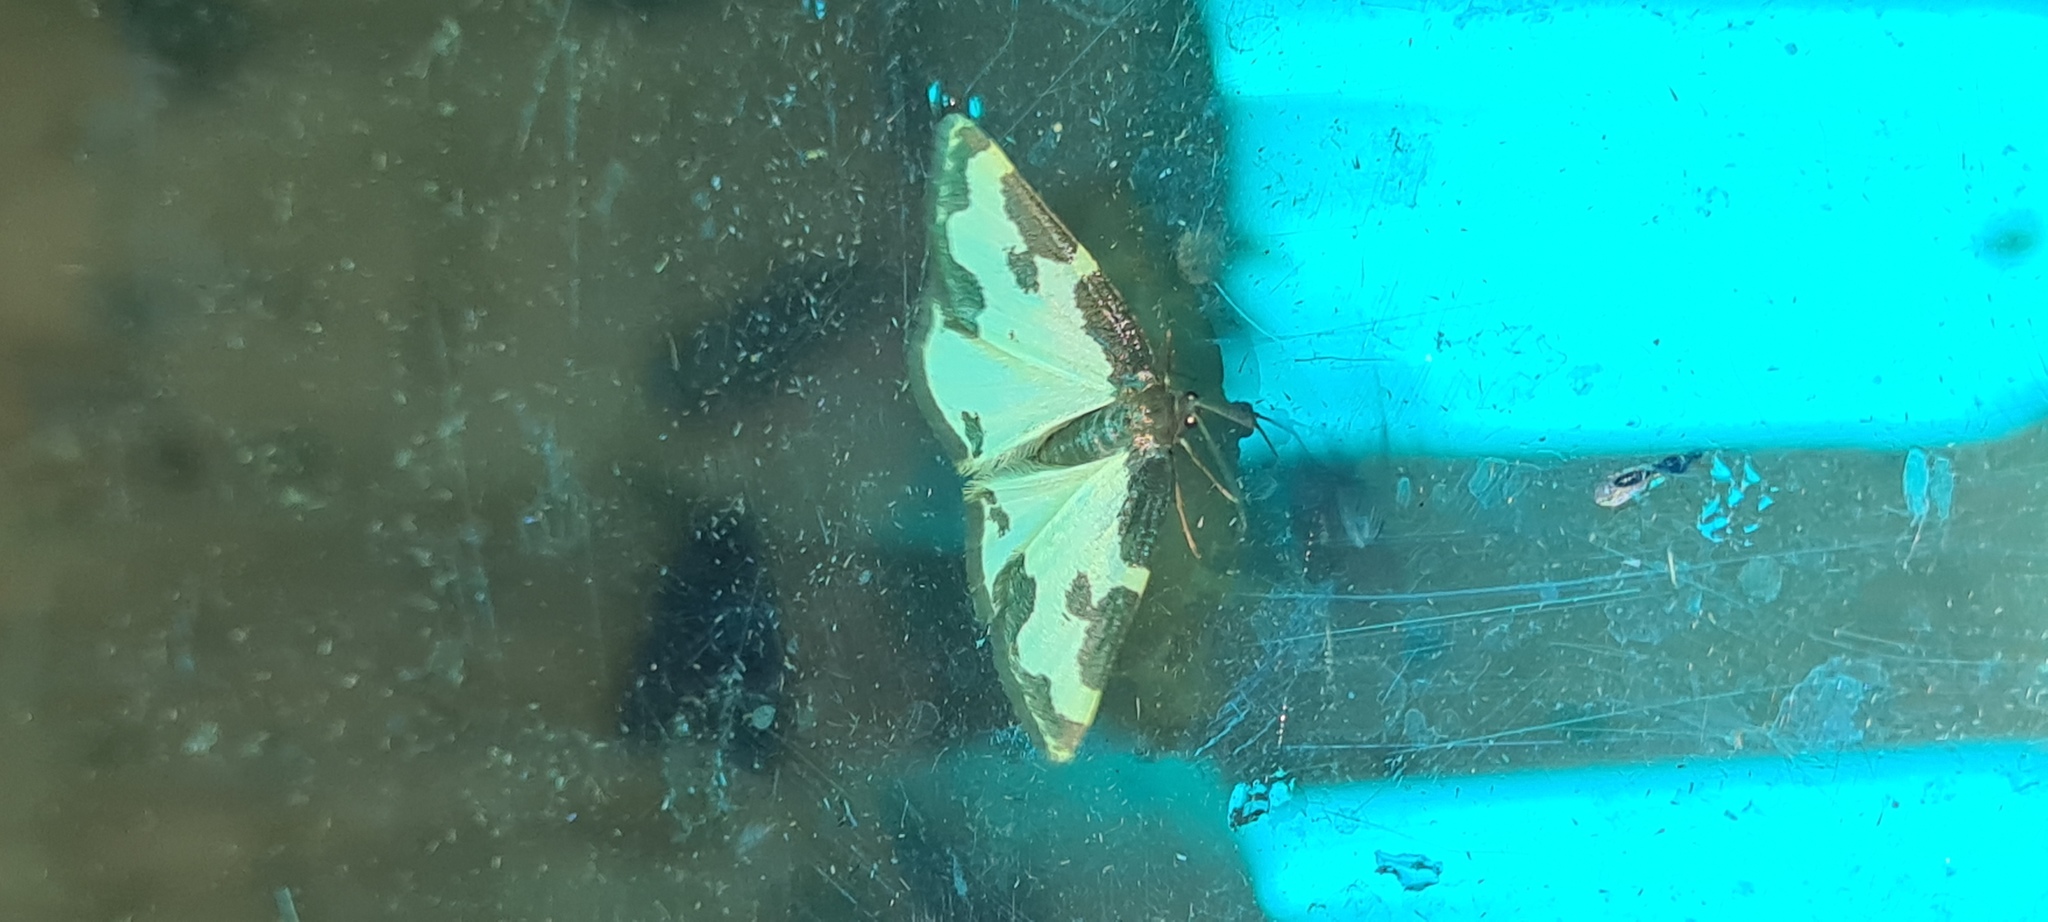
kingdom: Animalia
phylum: Arthropoda
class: Insecta
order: Lepidoptera
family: Geometridae
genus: Lomaspilis
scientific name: Lomaspilis marginata
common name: Clouded border
